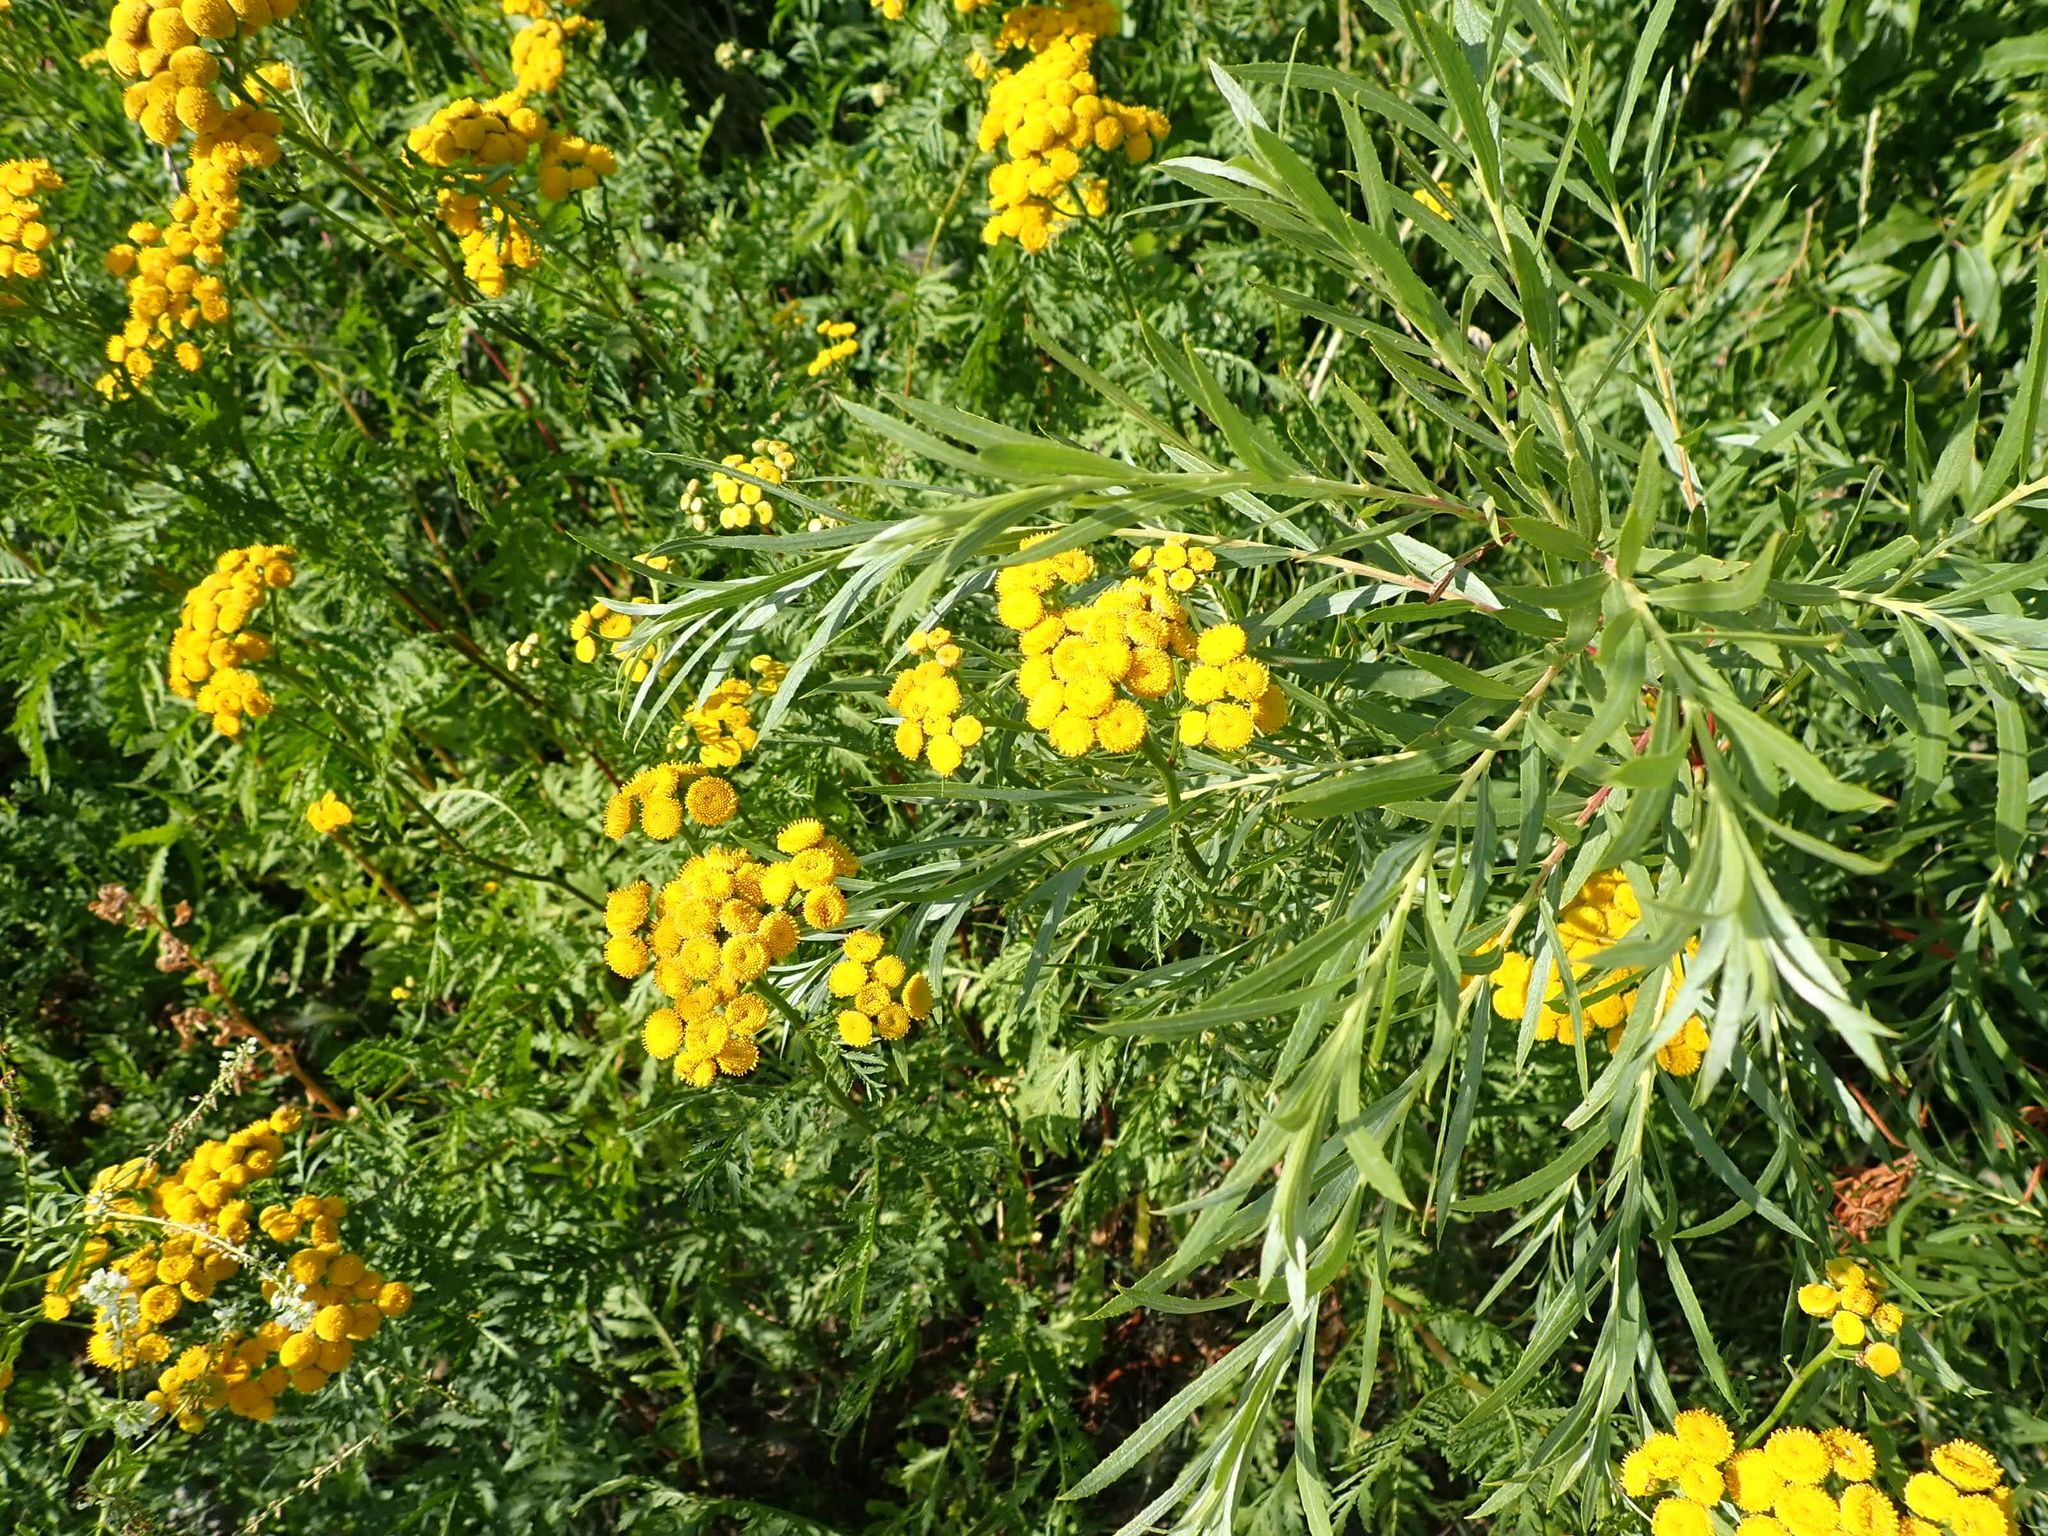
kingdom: Plantae
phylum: Tracheophyta
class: Magnoliopsida
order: Asterales
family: Asteraceae
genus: Tanacetum
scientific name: Tanacetum vulgare
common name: Common tansy
